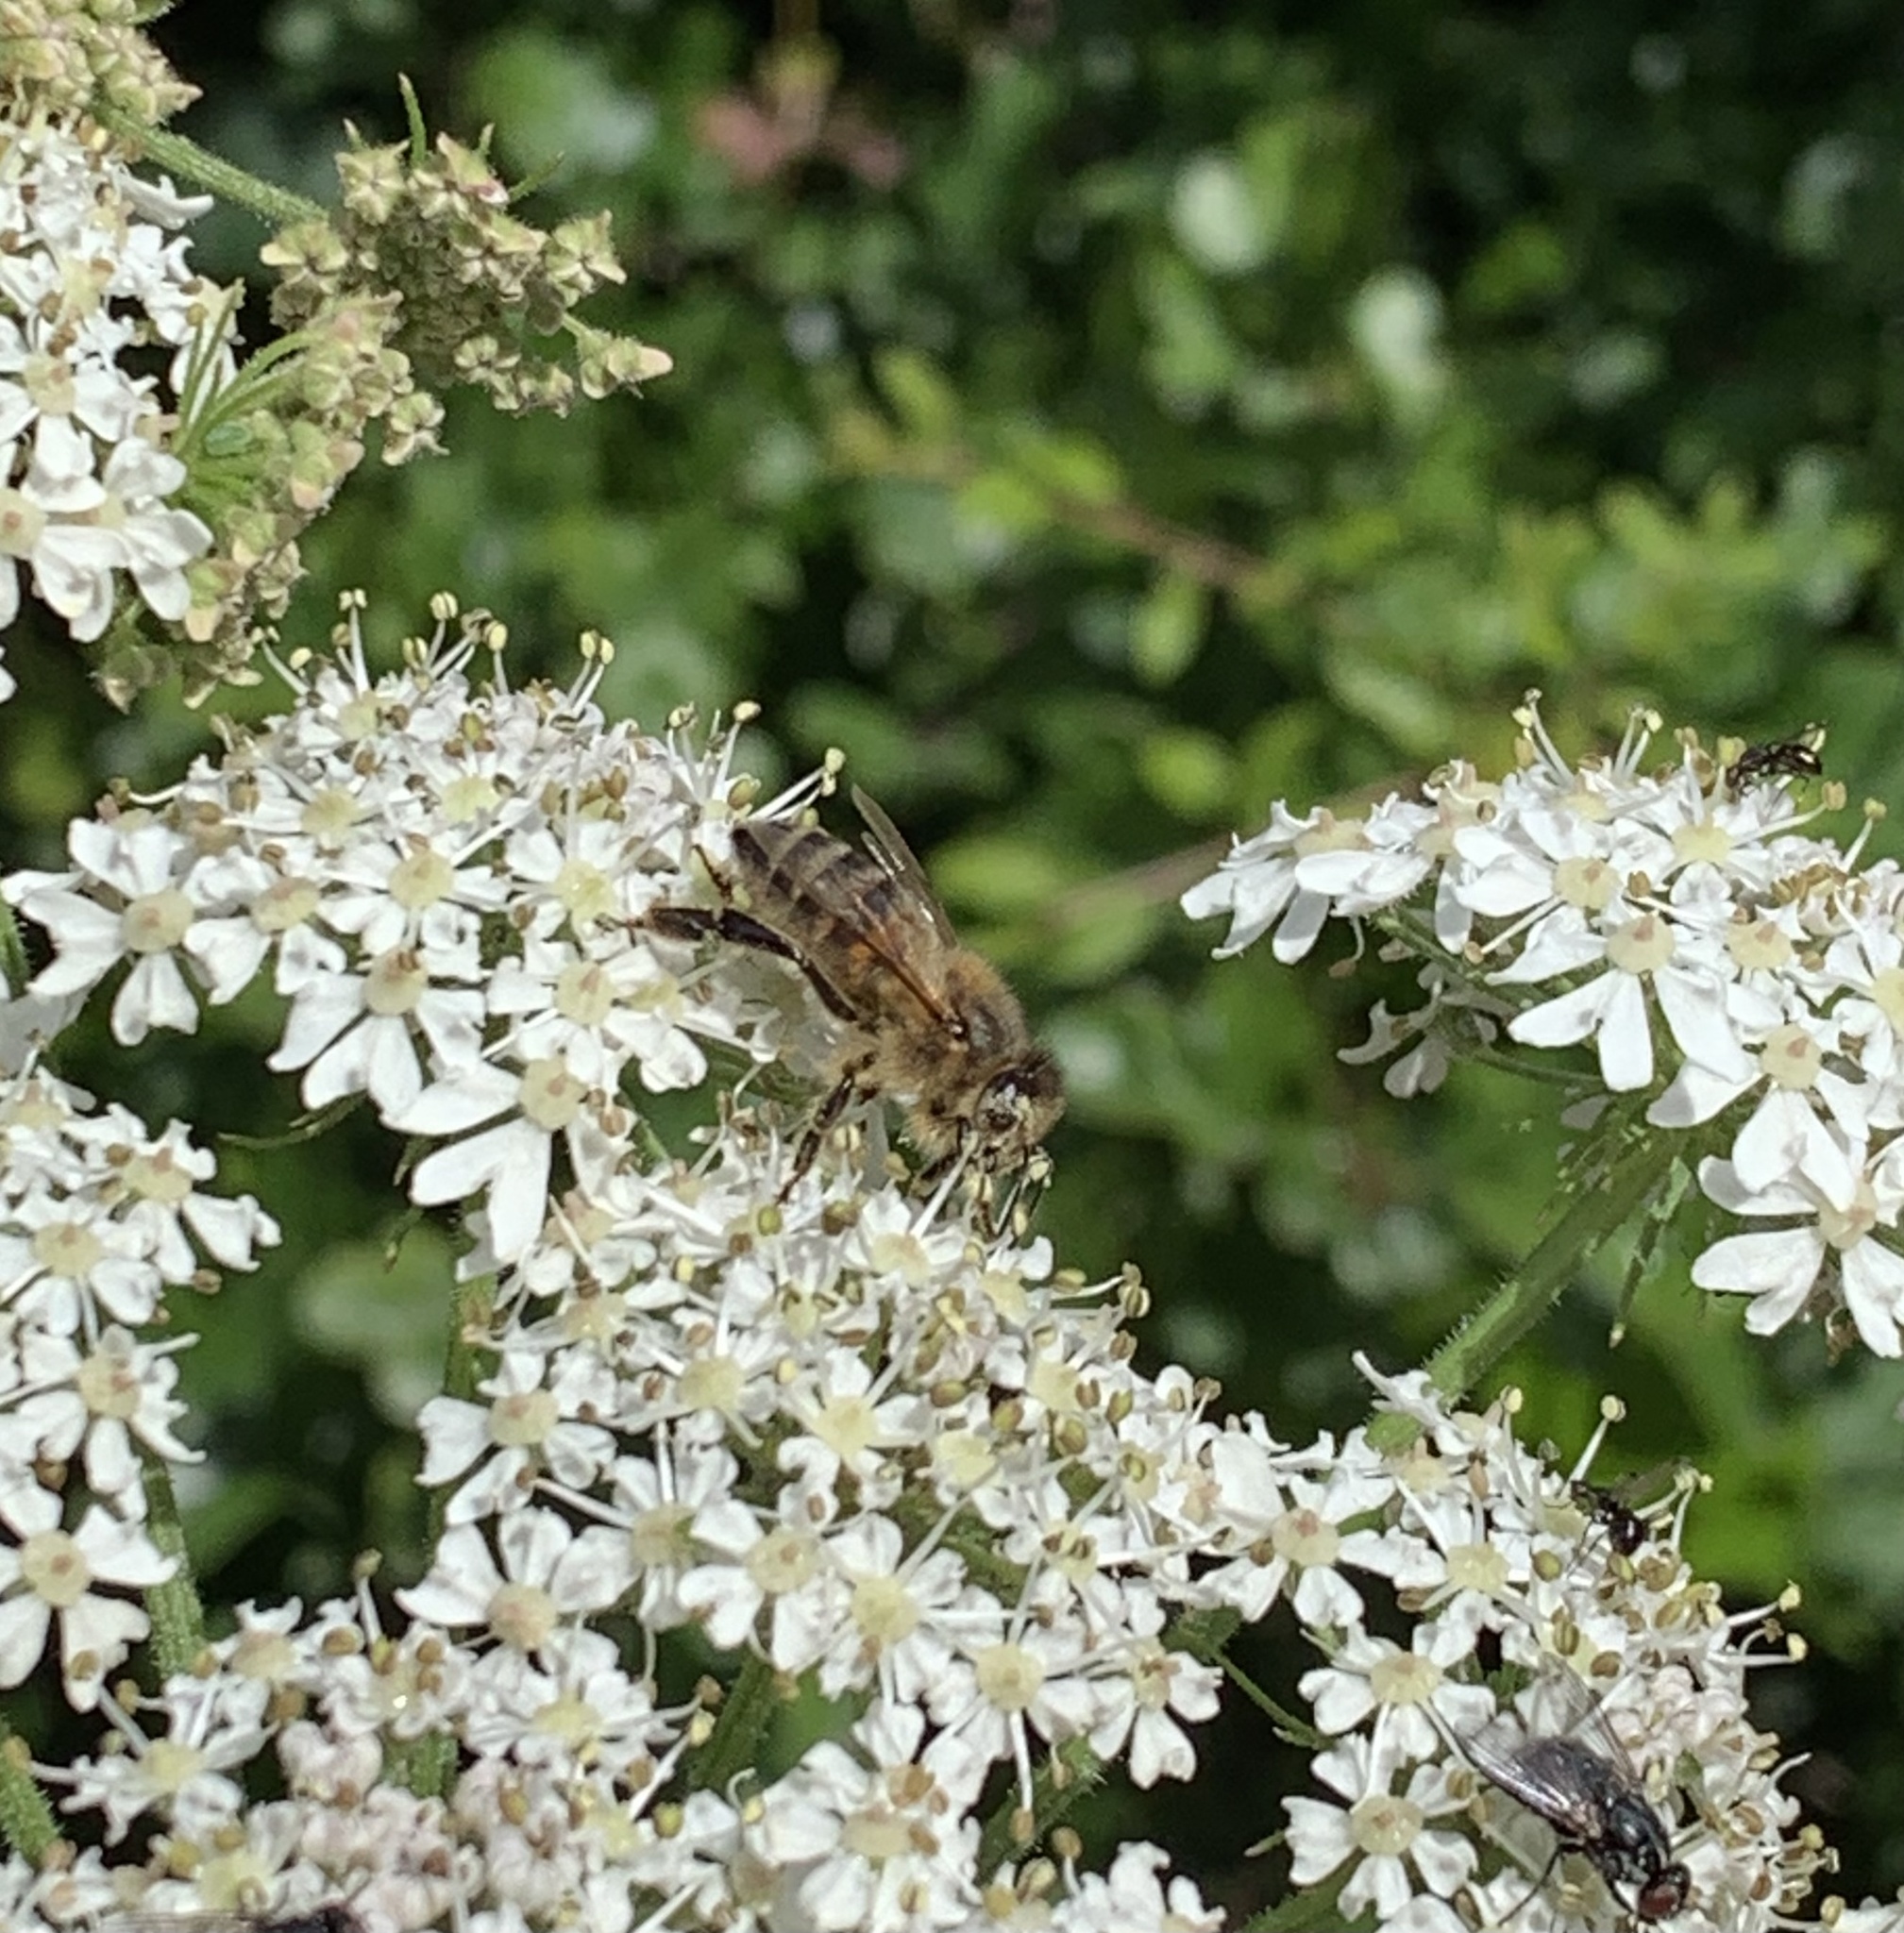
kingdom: Animalia
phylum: Arthropoda
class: Insecta
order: Hymenoptera
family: Apidae
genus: Apis
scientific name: Apis mellifera
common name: Honey bee
